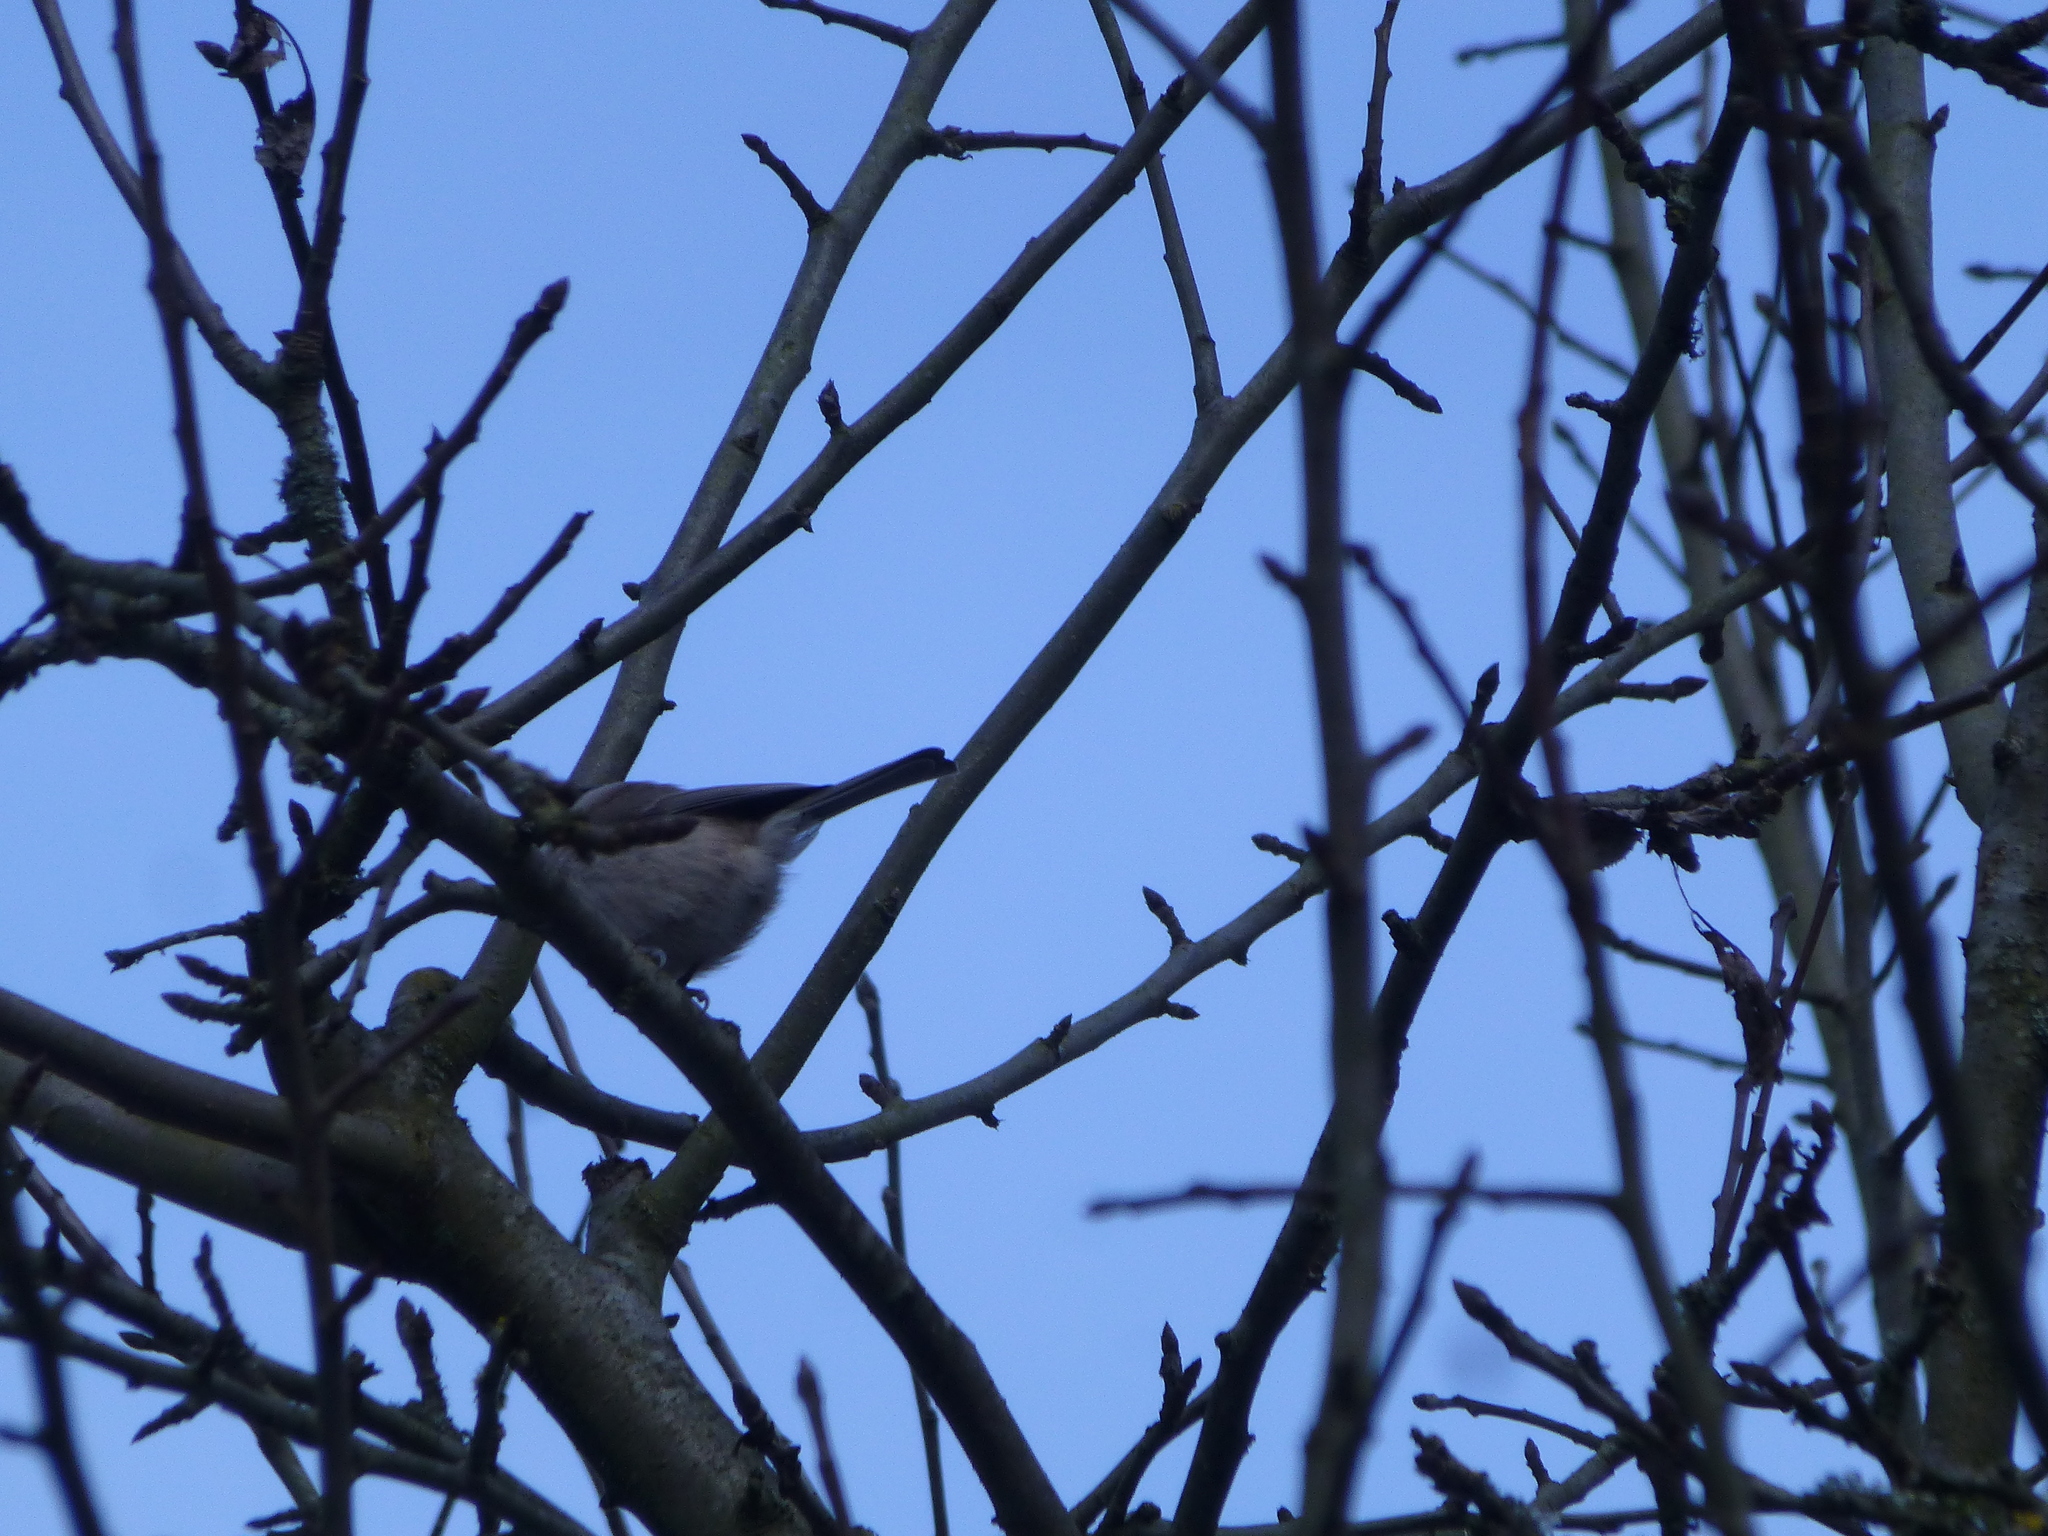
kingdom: Animalia
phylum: Chordata
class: Aves
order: Passeriformes
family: Paridae
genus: Poecile
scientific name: Poecile palustris
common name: Marsh tit
